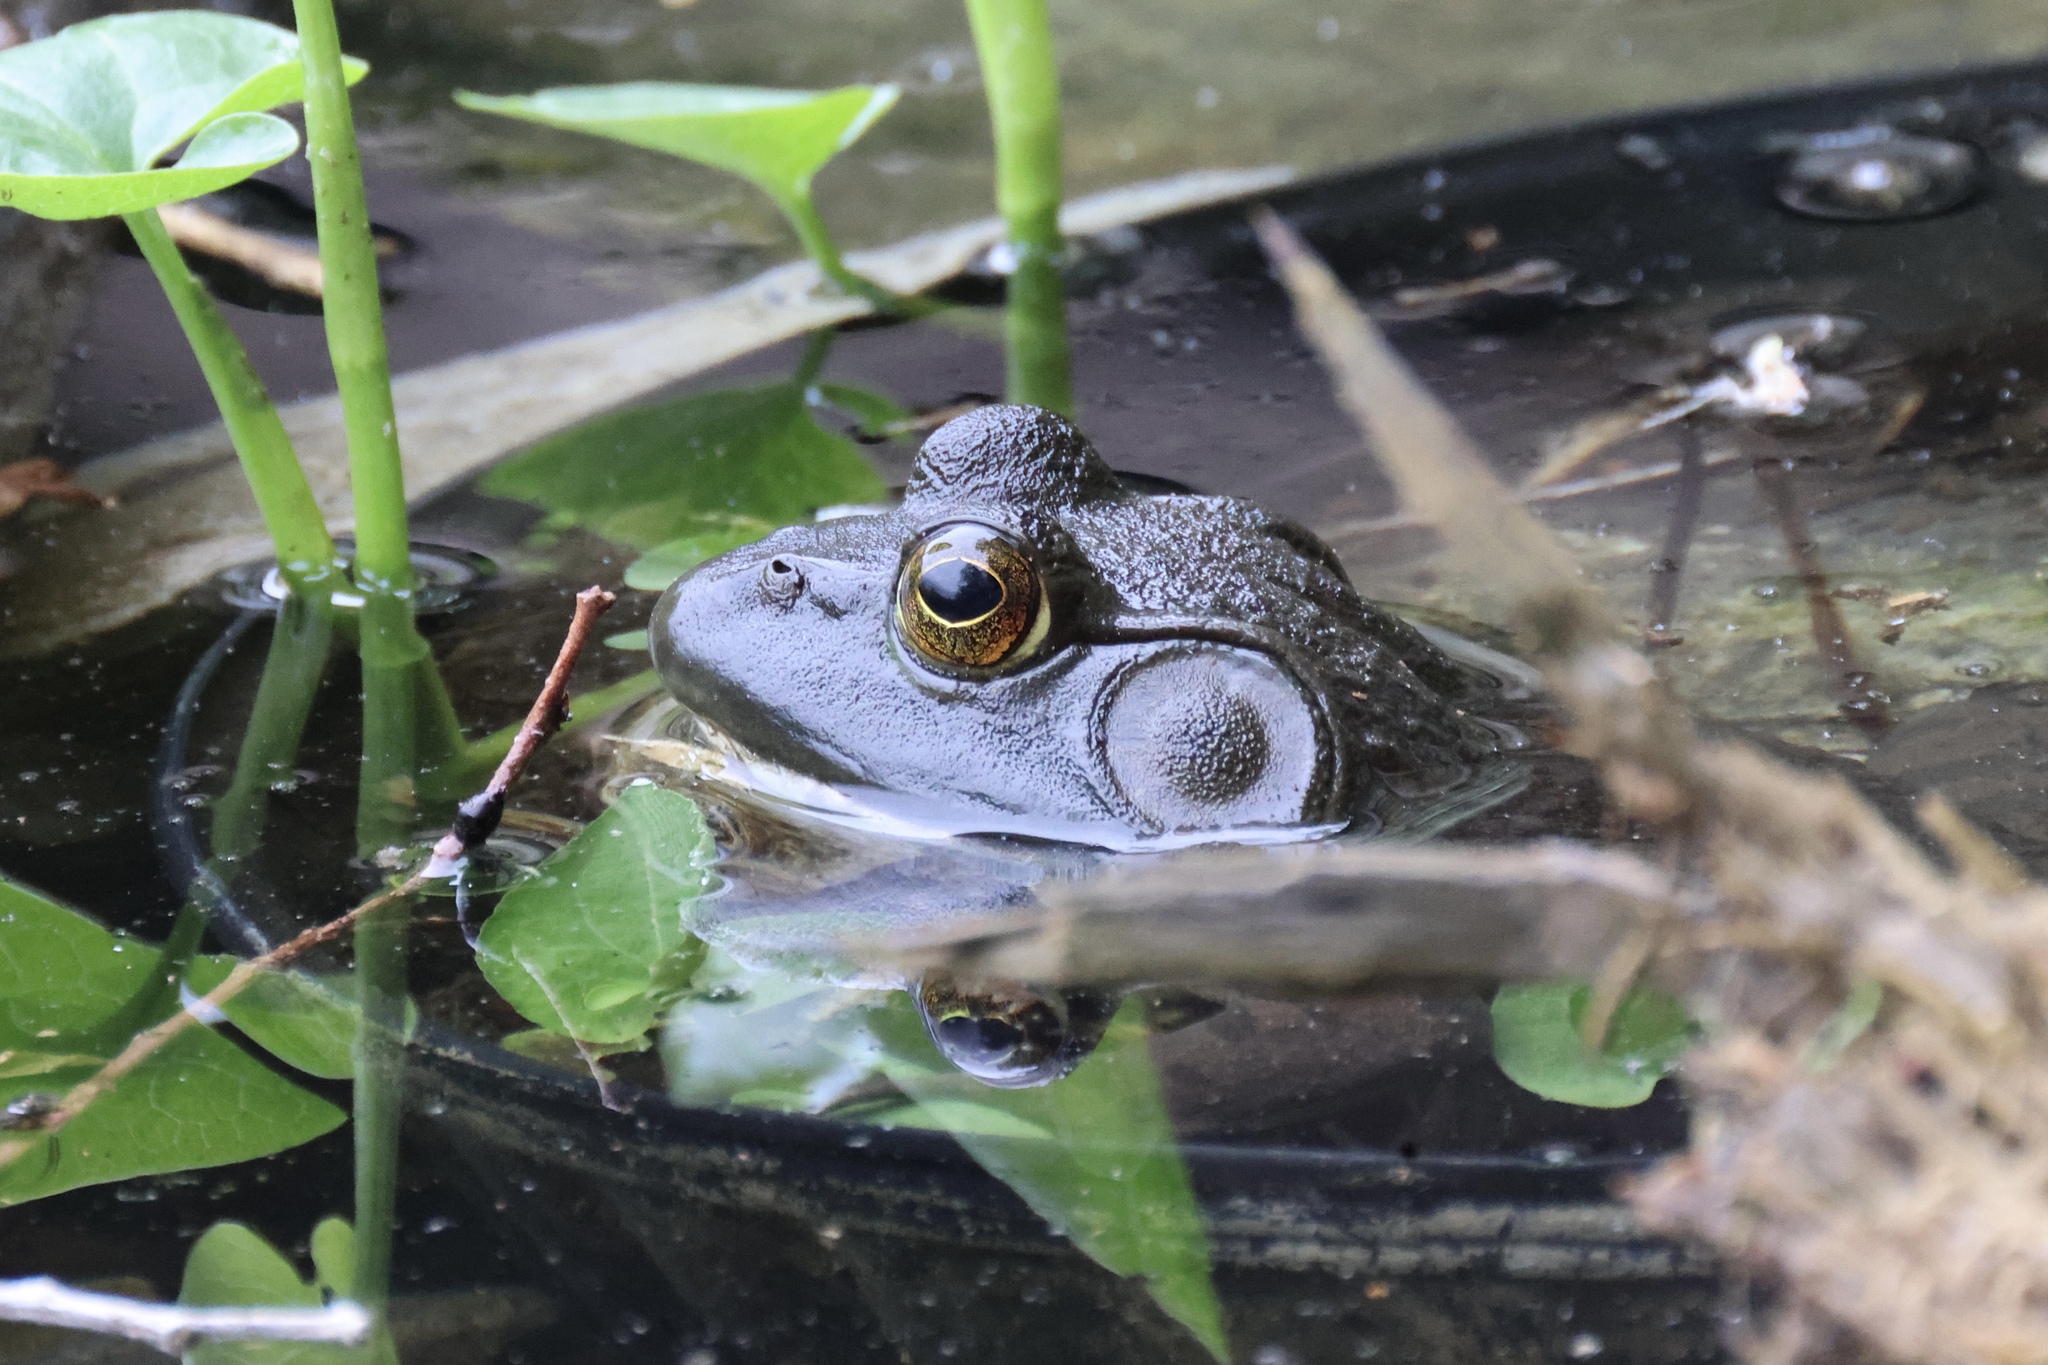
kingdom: Animalia
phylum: Chordata
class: Amphibia
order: Anura
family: Ranidae
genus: Lithobates
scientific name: Lithobates catesbeianus
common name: American bullfrog
